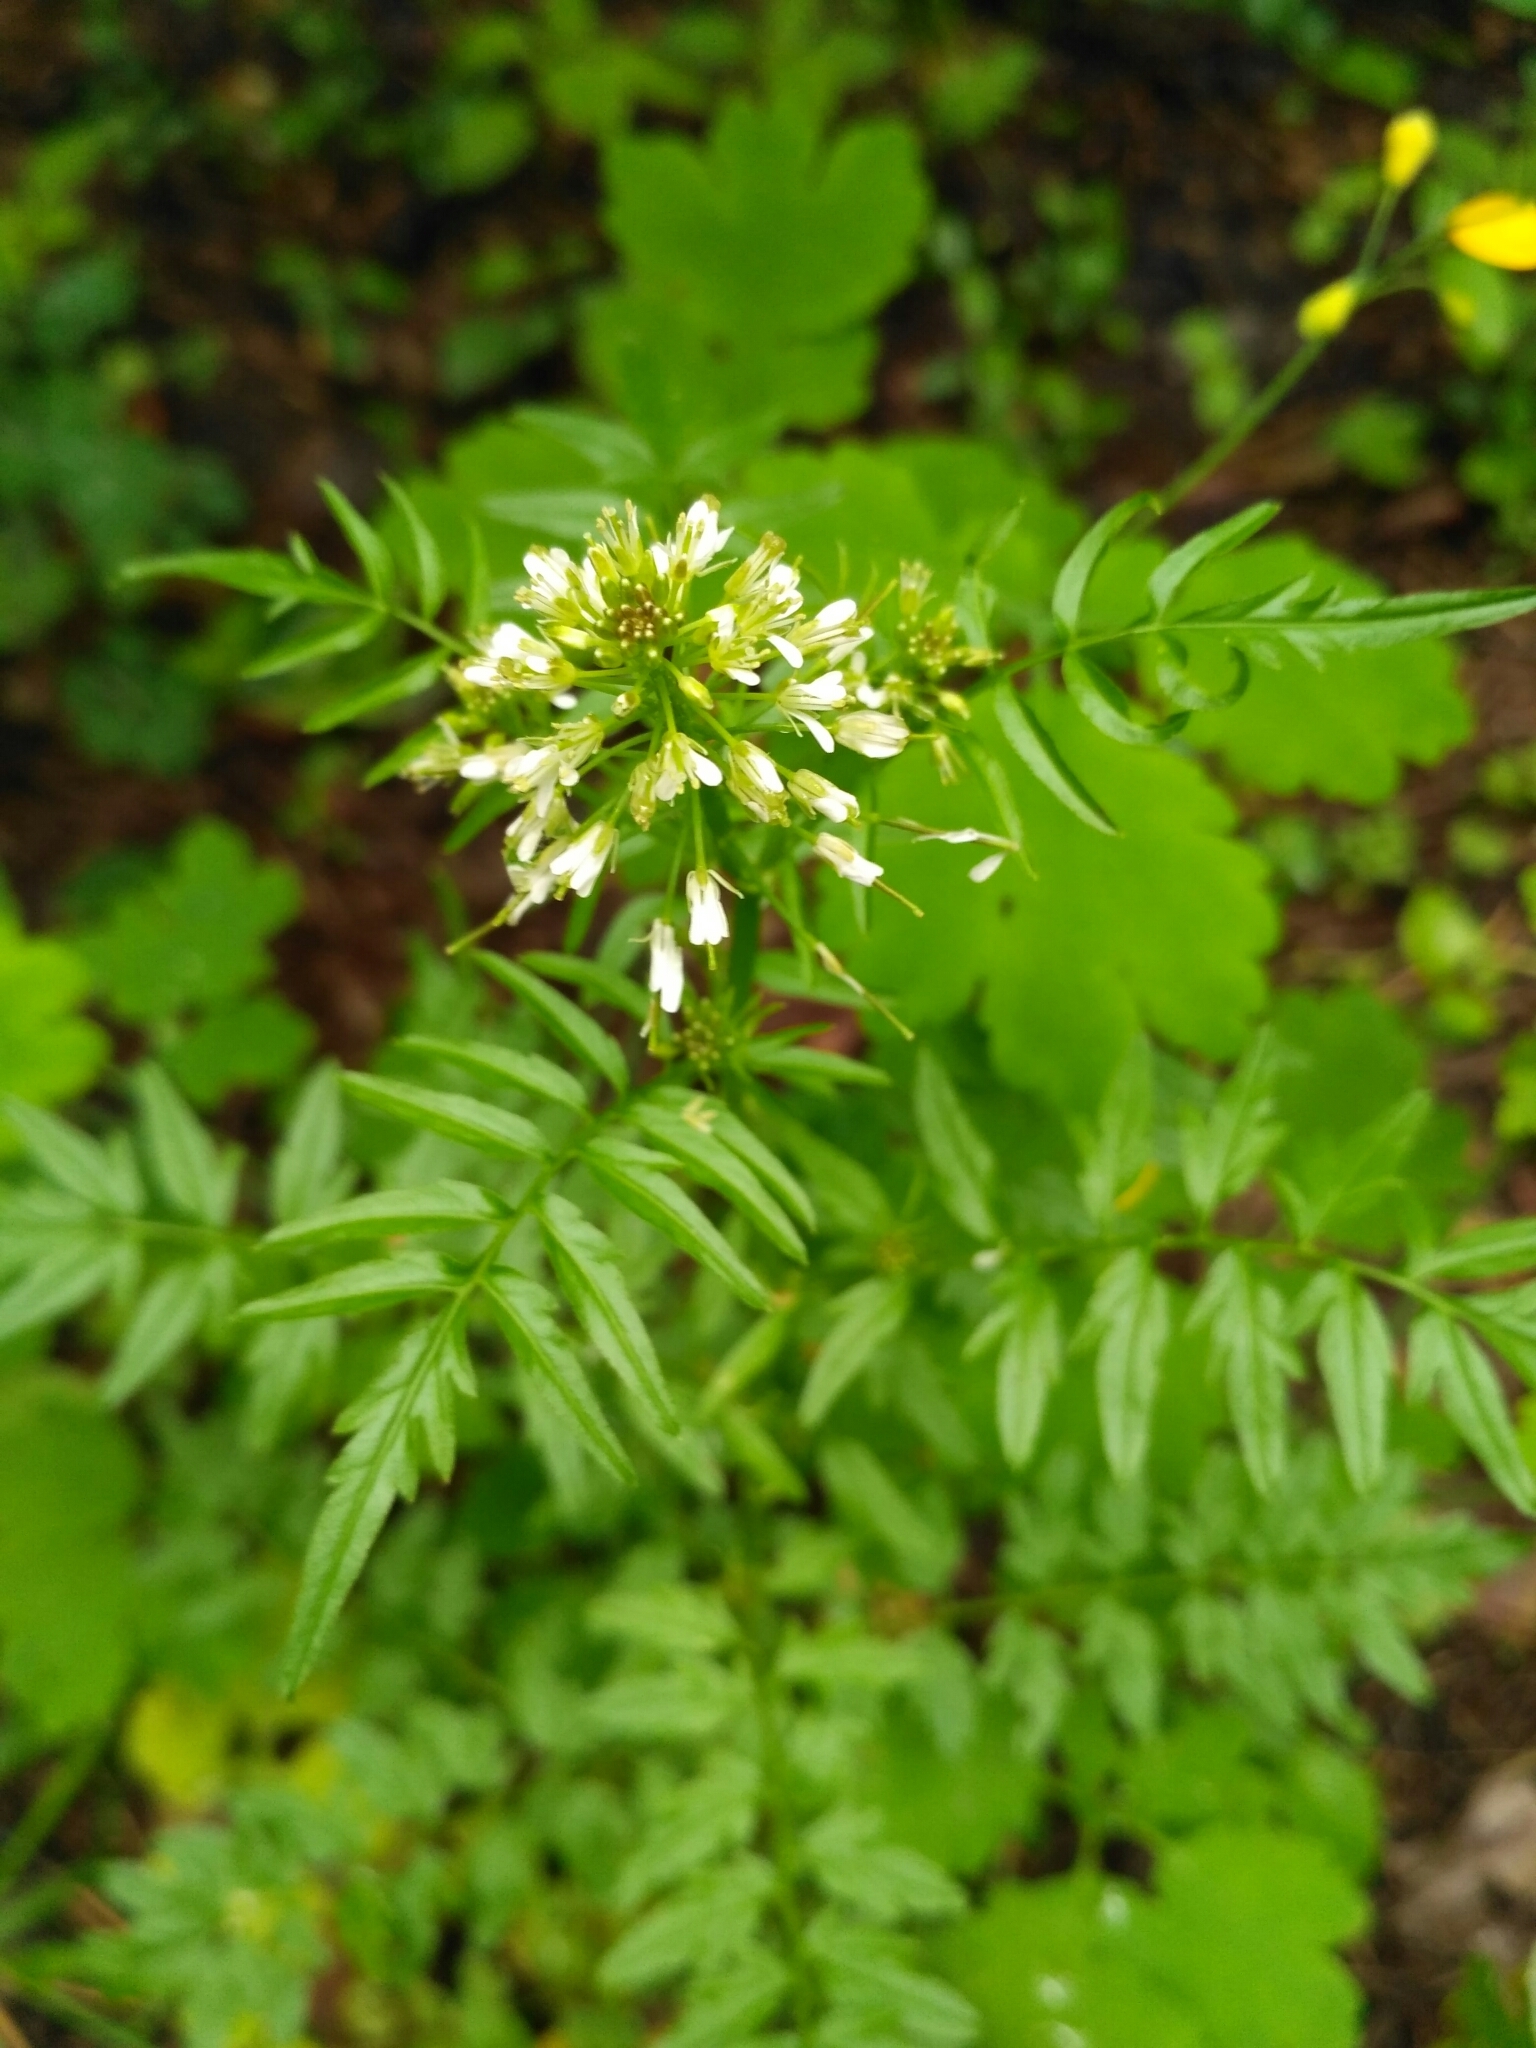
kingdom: Plantae
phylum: Tracheophyta
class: Magnoliopsida
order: Brassicales
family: Brassicaceae
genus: Cardamine
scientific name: Cardamine impatiens
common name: Narrow-leaved bitter-cress
